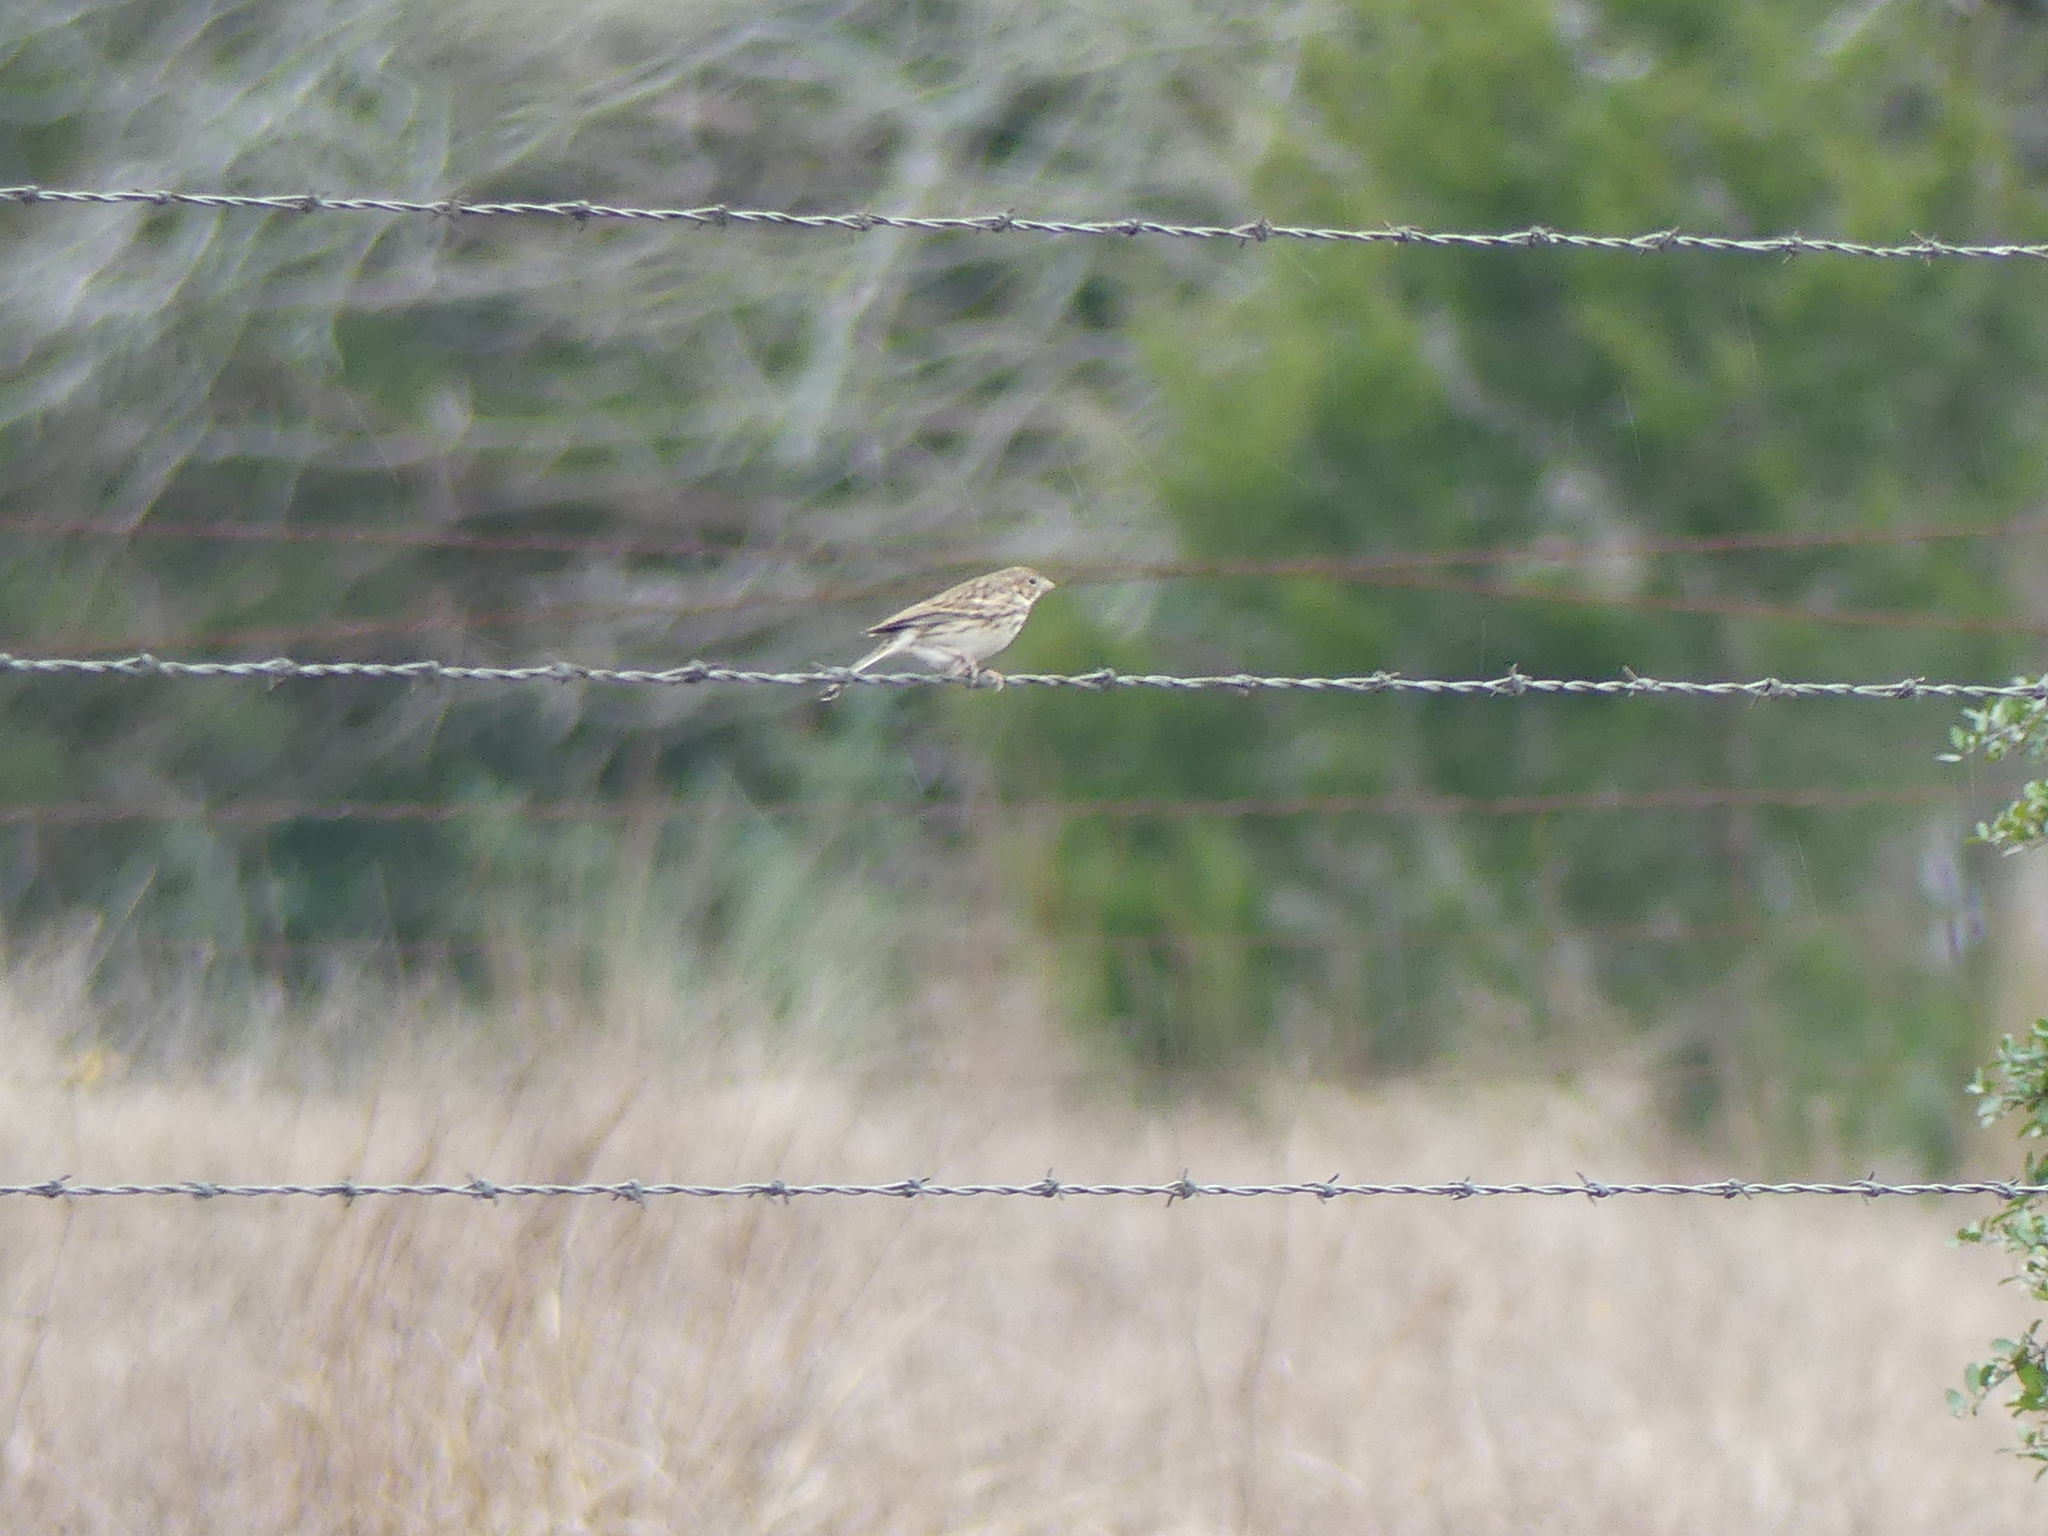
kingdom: Animalia
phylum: Chordata
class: Aves
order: Passeriformes
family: Passerellidae
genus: Pooecetes
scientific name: Pooecetes gramineus
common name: Vesper sparrow
